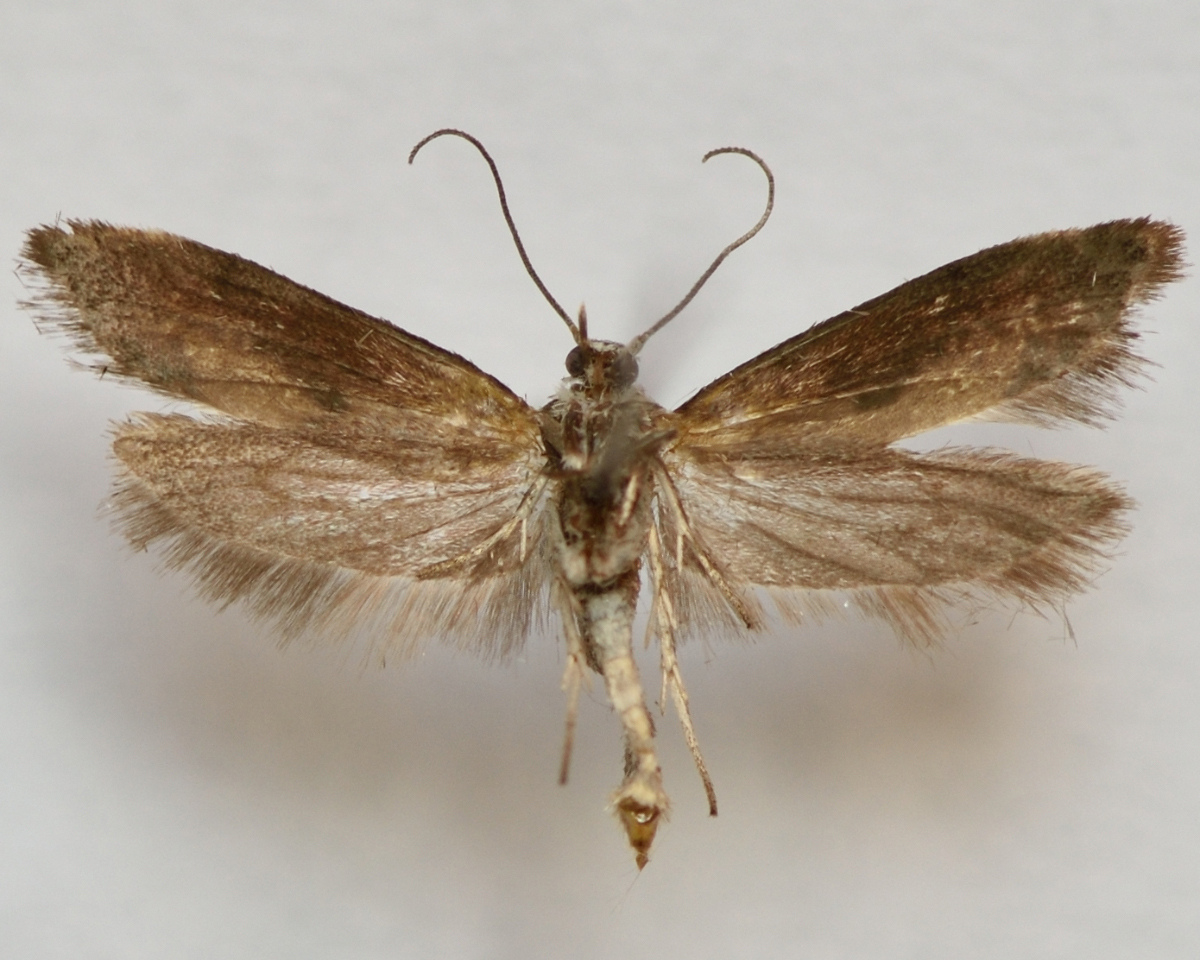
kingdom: Animalia
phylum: Arthropoda
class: Insecta
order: Lepidoptera
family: Praydidae
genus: Prays
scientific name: Prays fraxinella
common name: Ash bud moth
